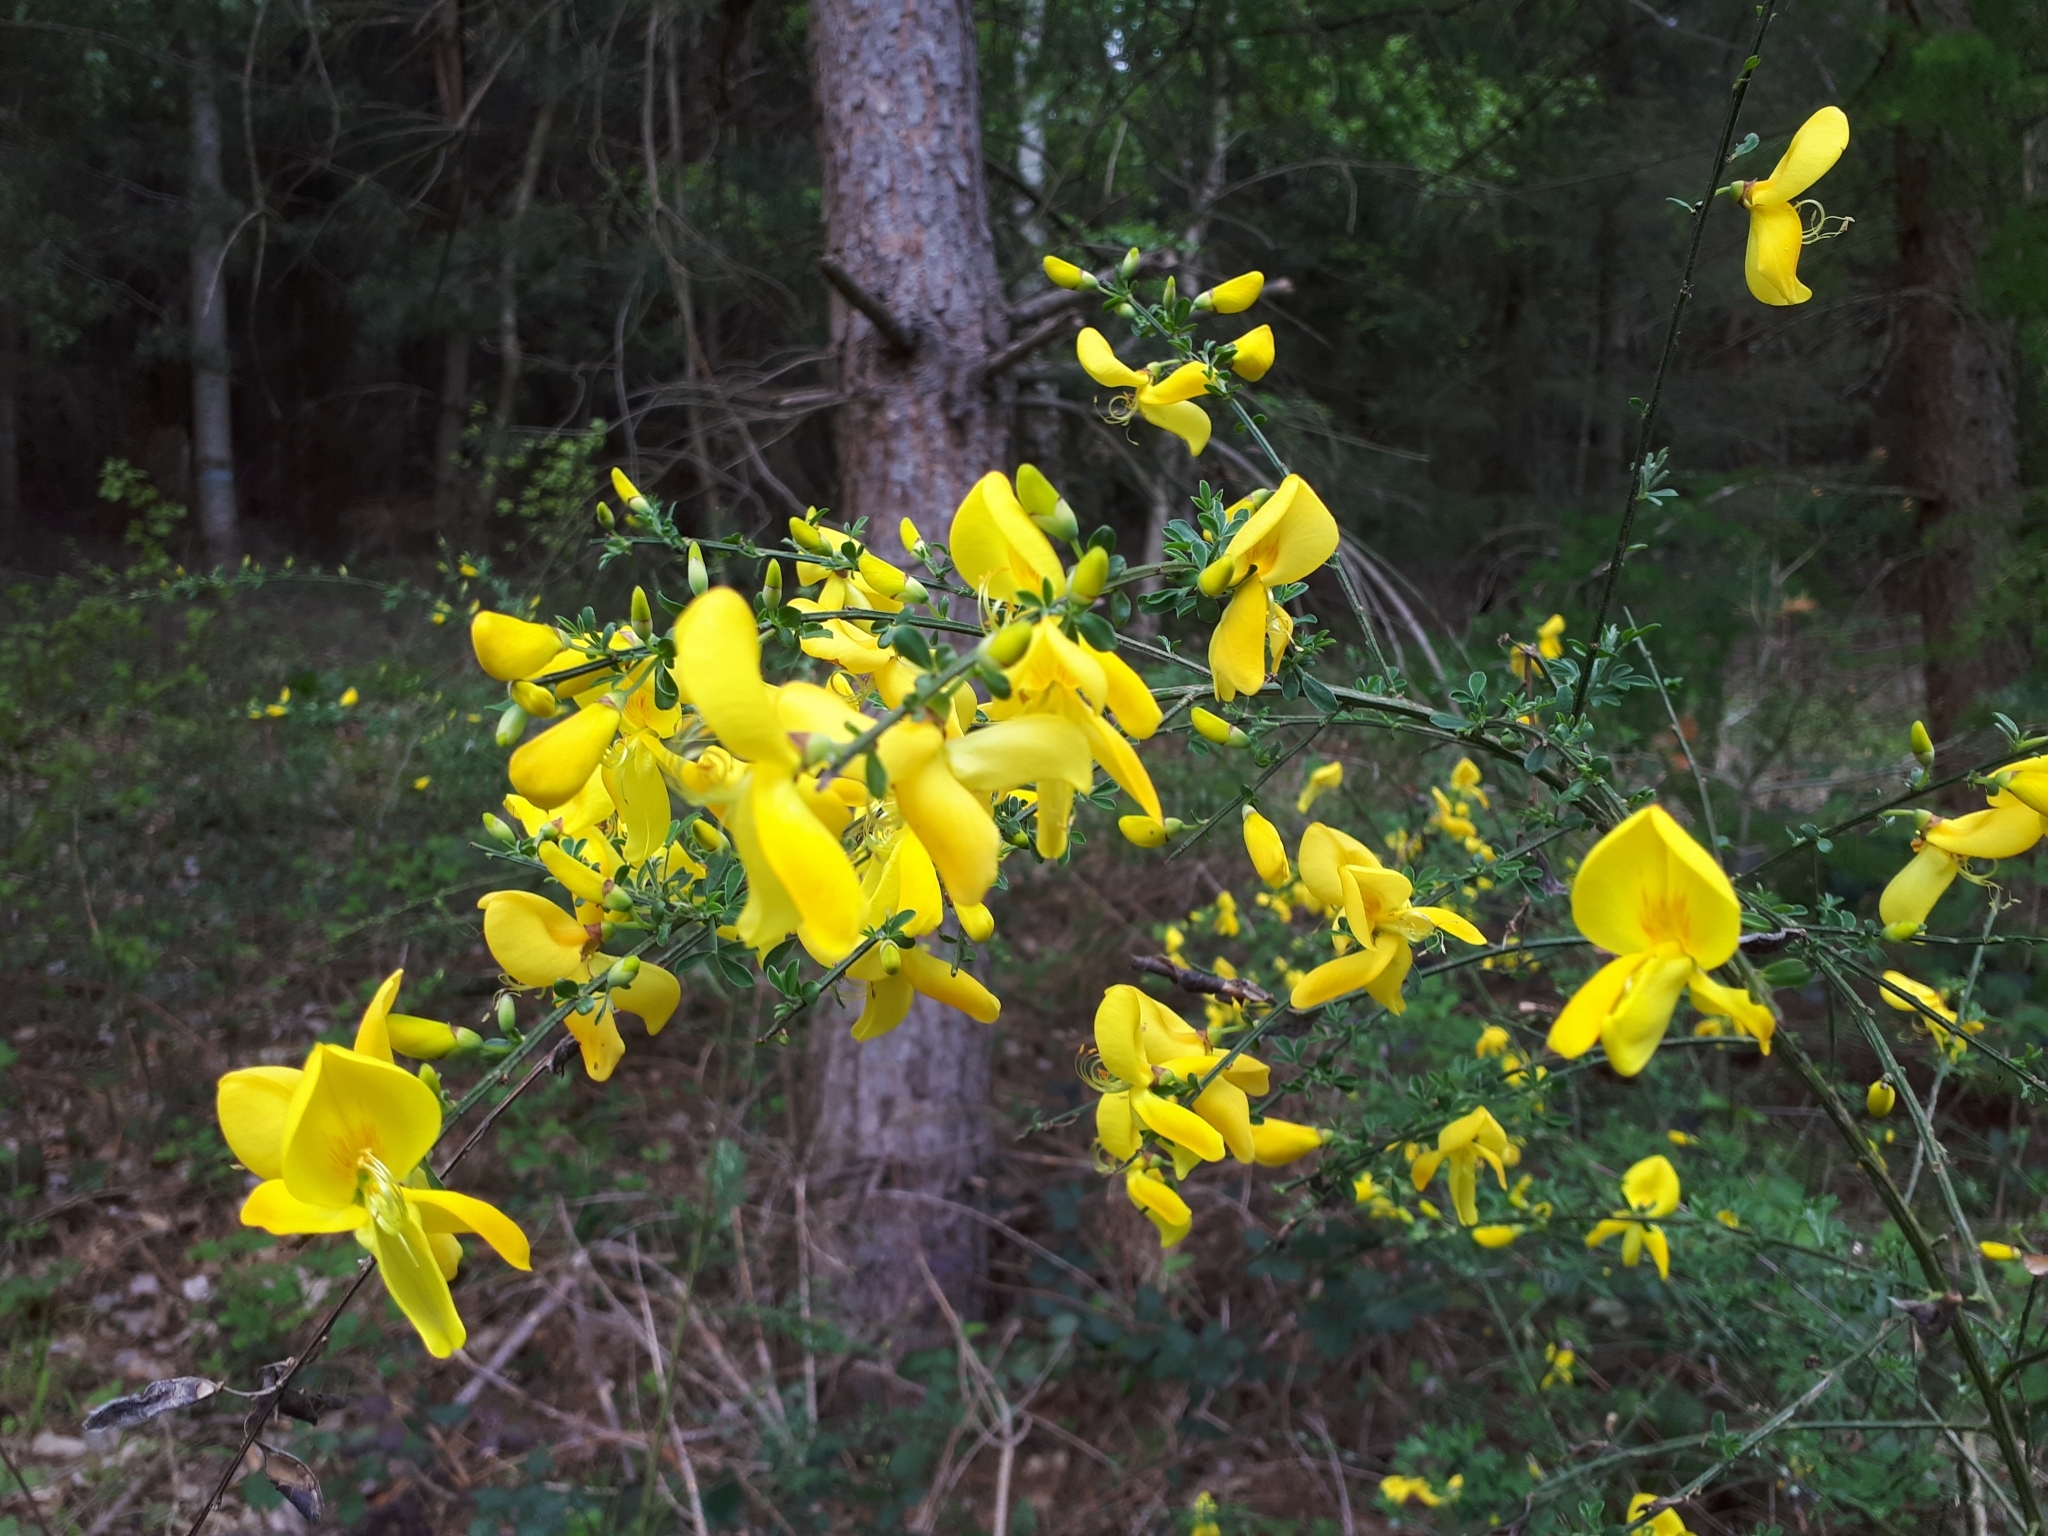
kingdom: Plantae
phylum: Tracheophyta
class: Magnoliopsida
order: Fabales
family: Fabaceae
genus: Cytisus
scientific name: Cytisus scoparius
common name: Scotch broom
